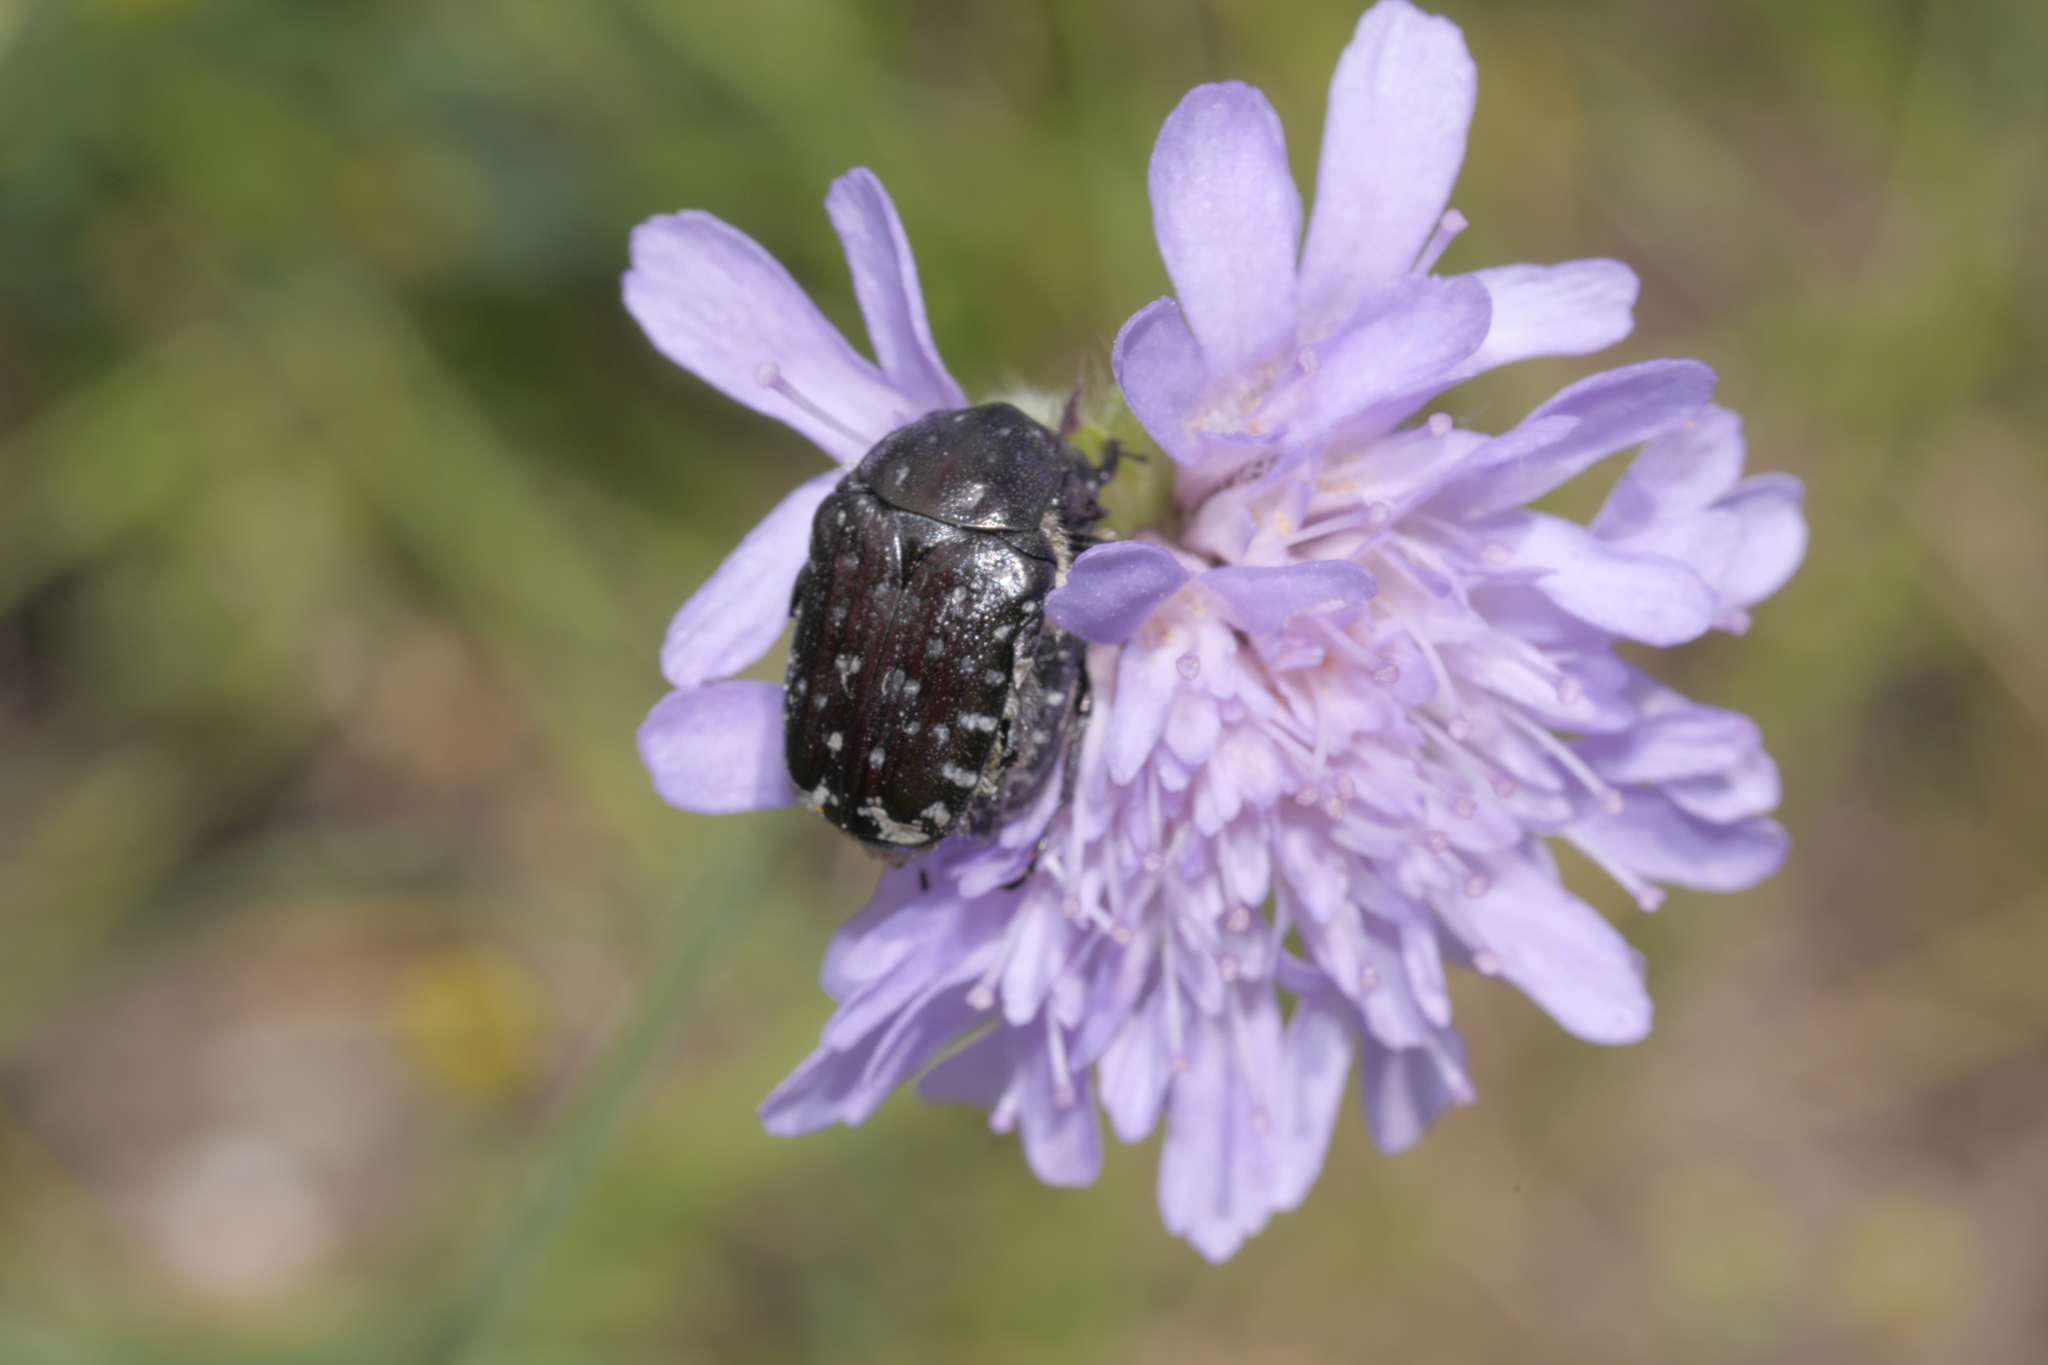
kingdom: Animalia
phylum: Arthropoda
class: Insecta
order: Coleoptera
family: Scarabaeidae
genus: Oxythyrea
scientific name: Oxythyrea funesta
